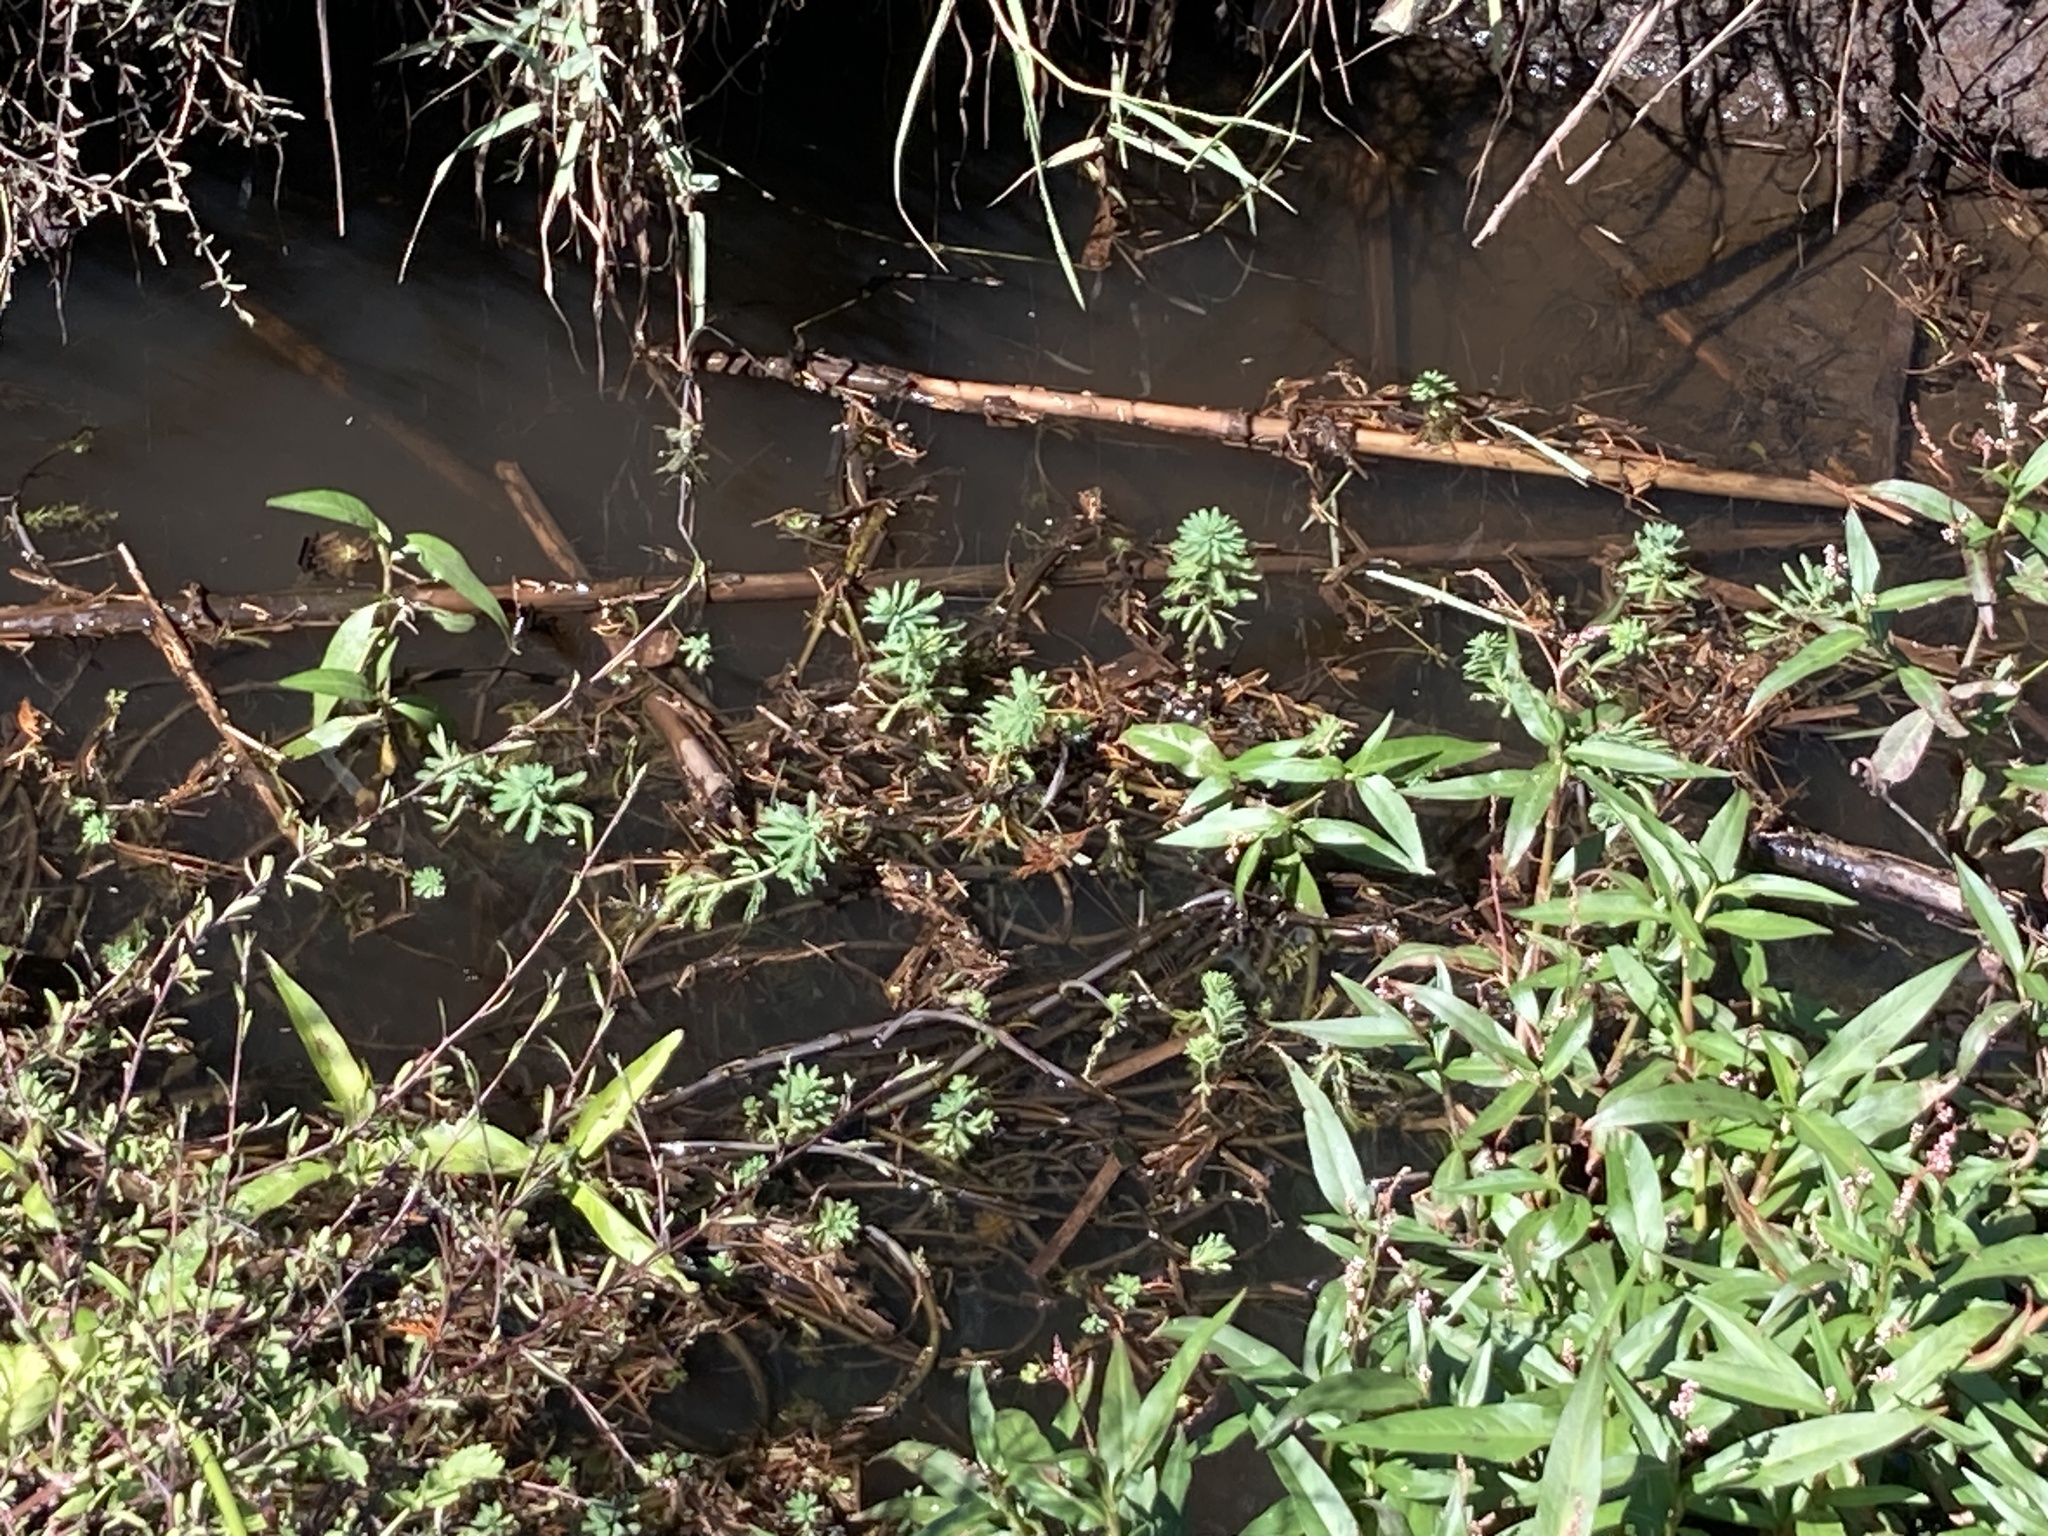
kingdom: Plantae
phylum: Tracheophyta
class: Magnoliopsida
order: Saxifragales
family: Haloragaceae
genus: Myriophyllum
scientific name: Myriophyllum aquaticum
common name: Parrot's feather
